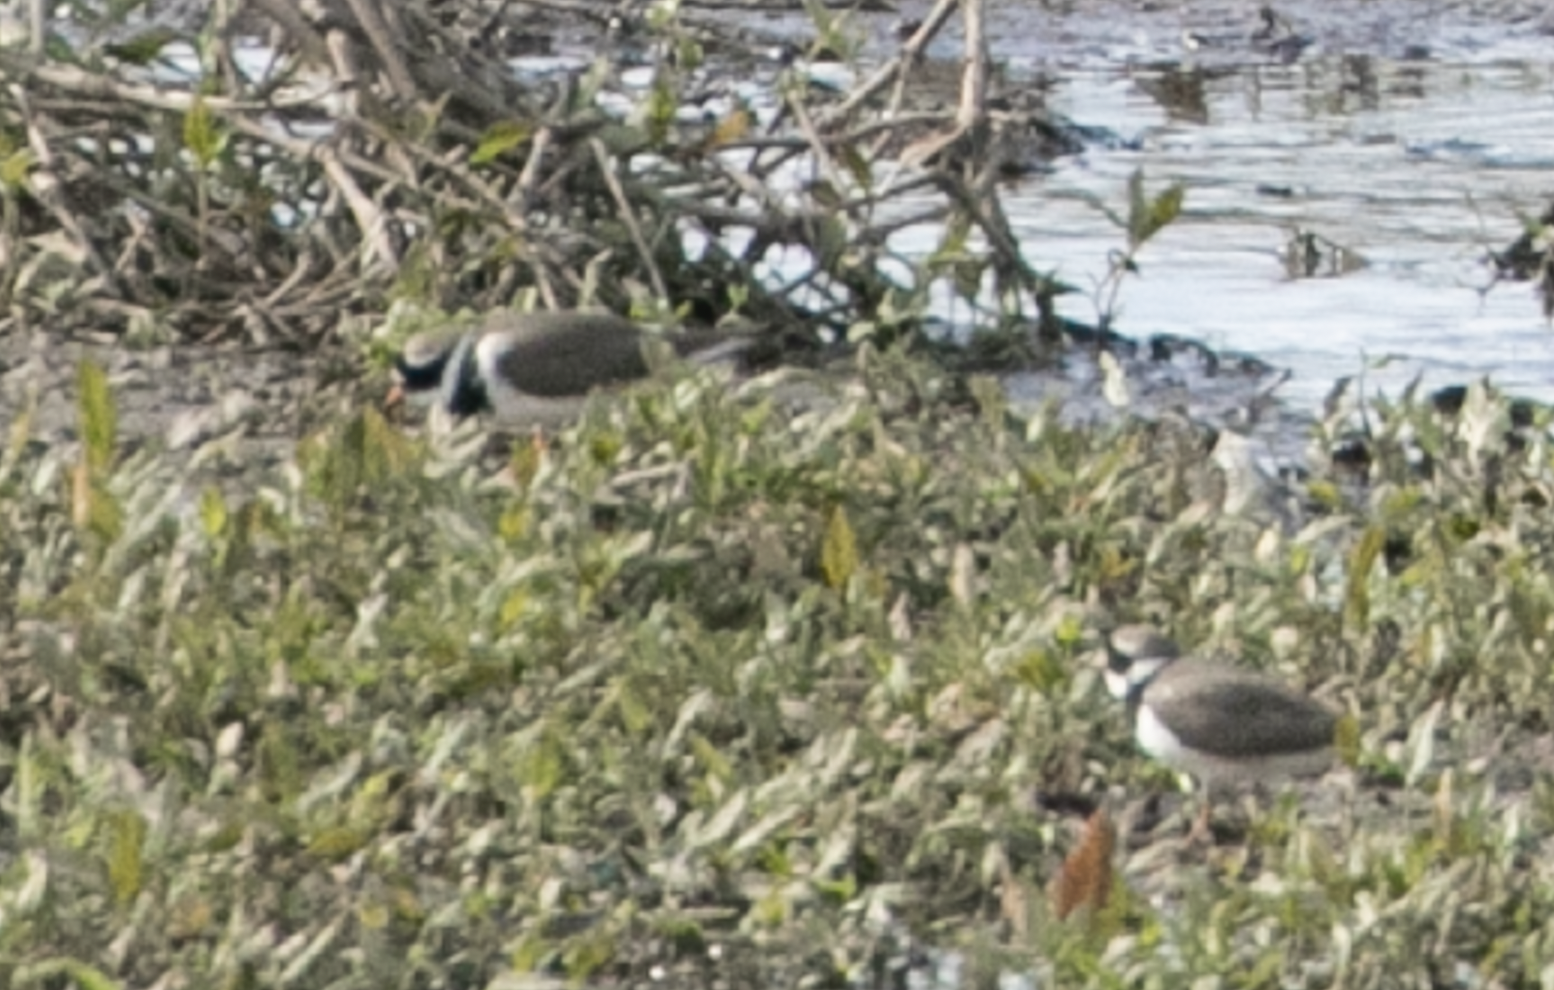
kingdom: Animalia
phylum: Chordata
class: Aves
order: Charadriiformes
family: Charadriidae
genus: Charadrius
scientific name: Charadrius hiaticula
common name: Common ringed plover
